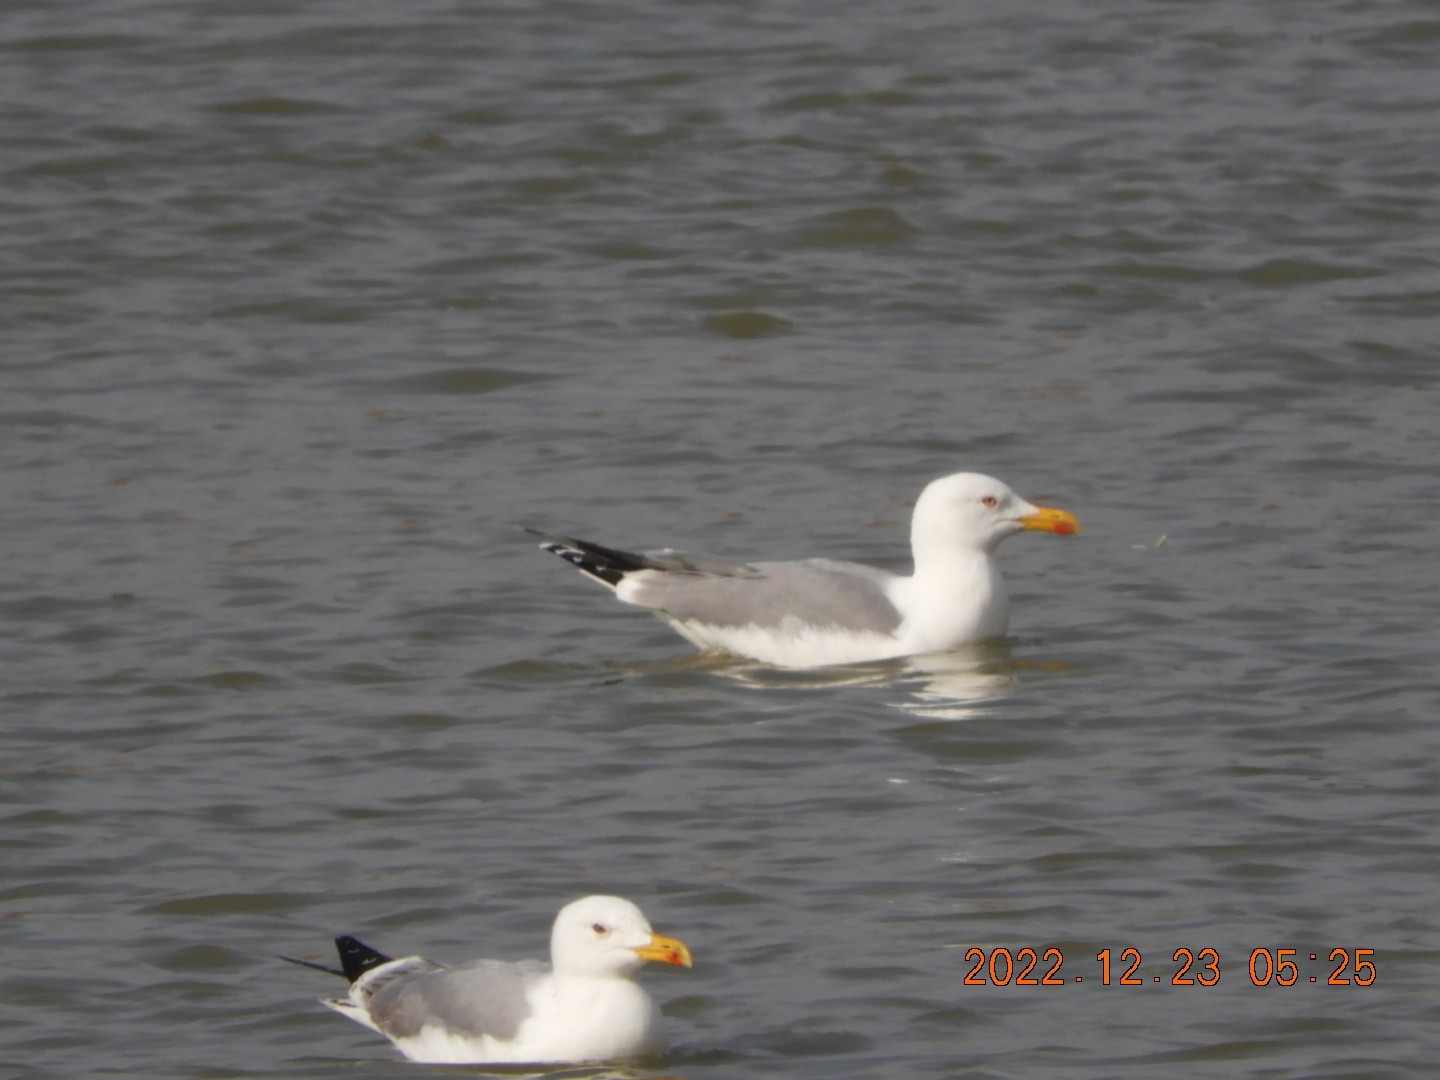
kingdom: Animalia
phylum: Chordata
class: Aves
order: Charadriiformes
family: Laridae
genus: Larus
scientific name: Larus michahellis
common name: Yellow-legged gull
